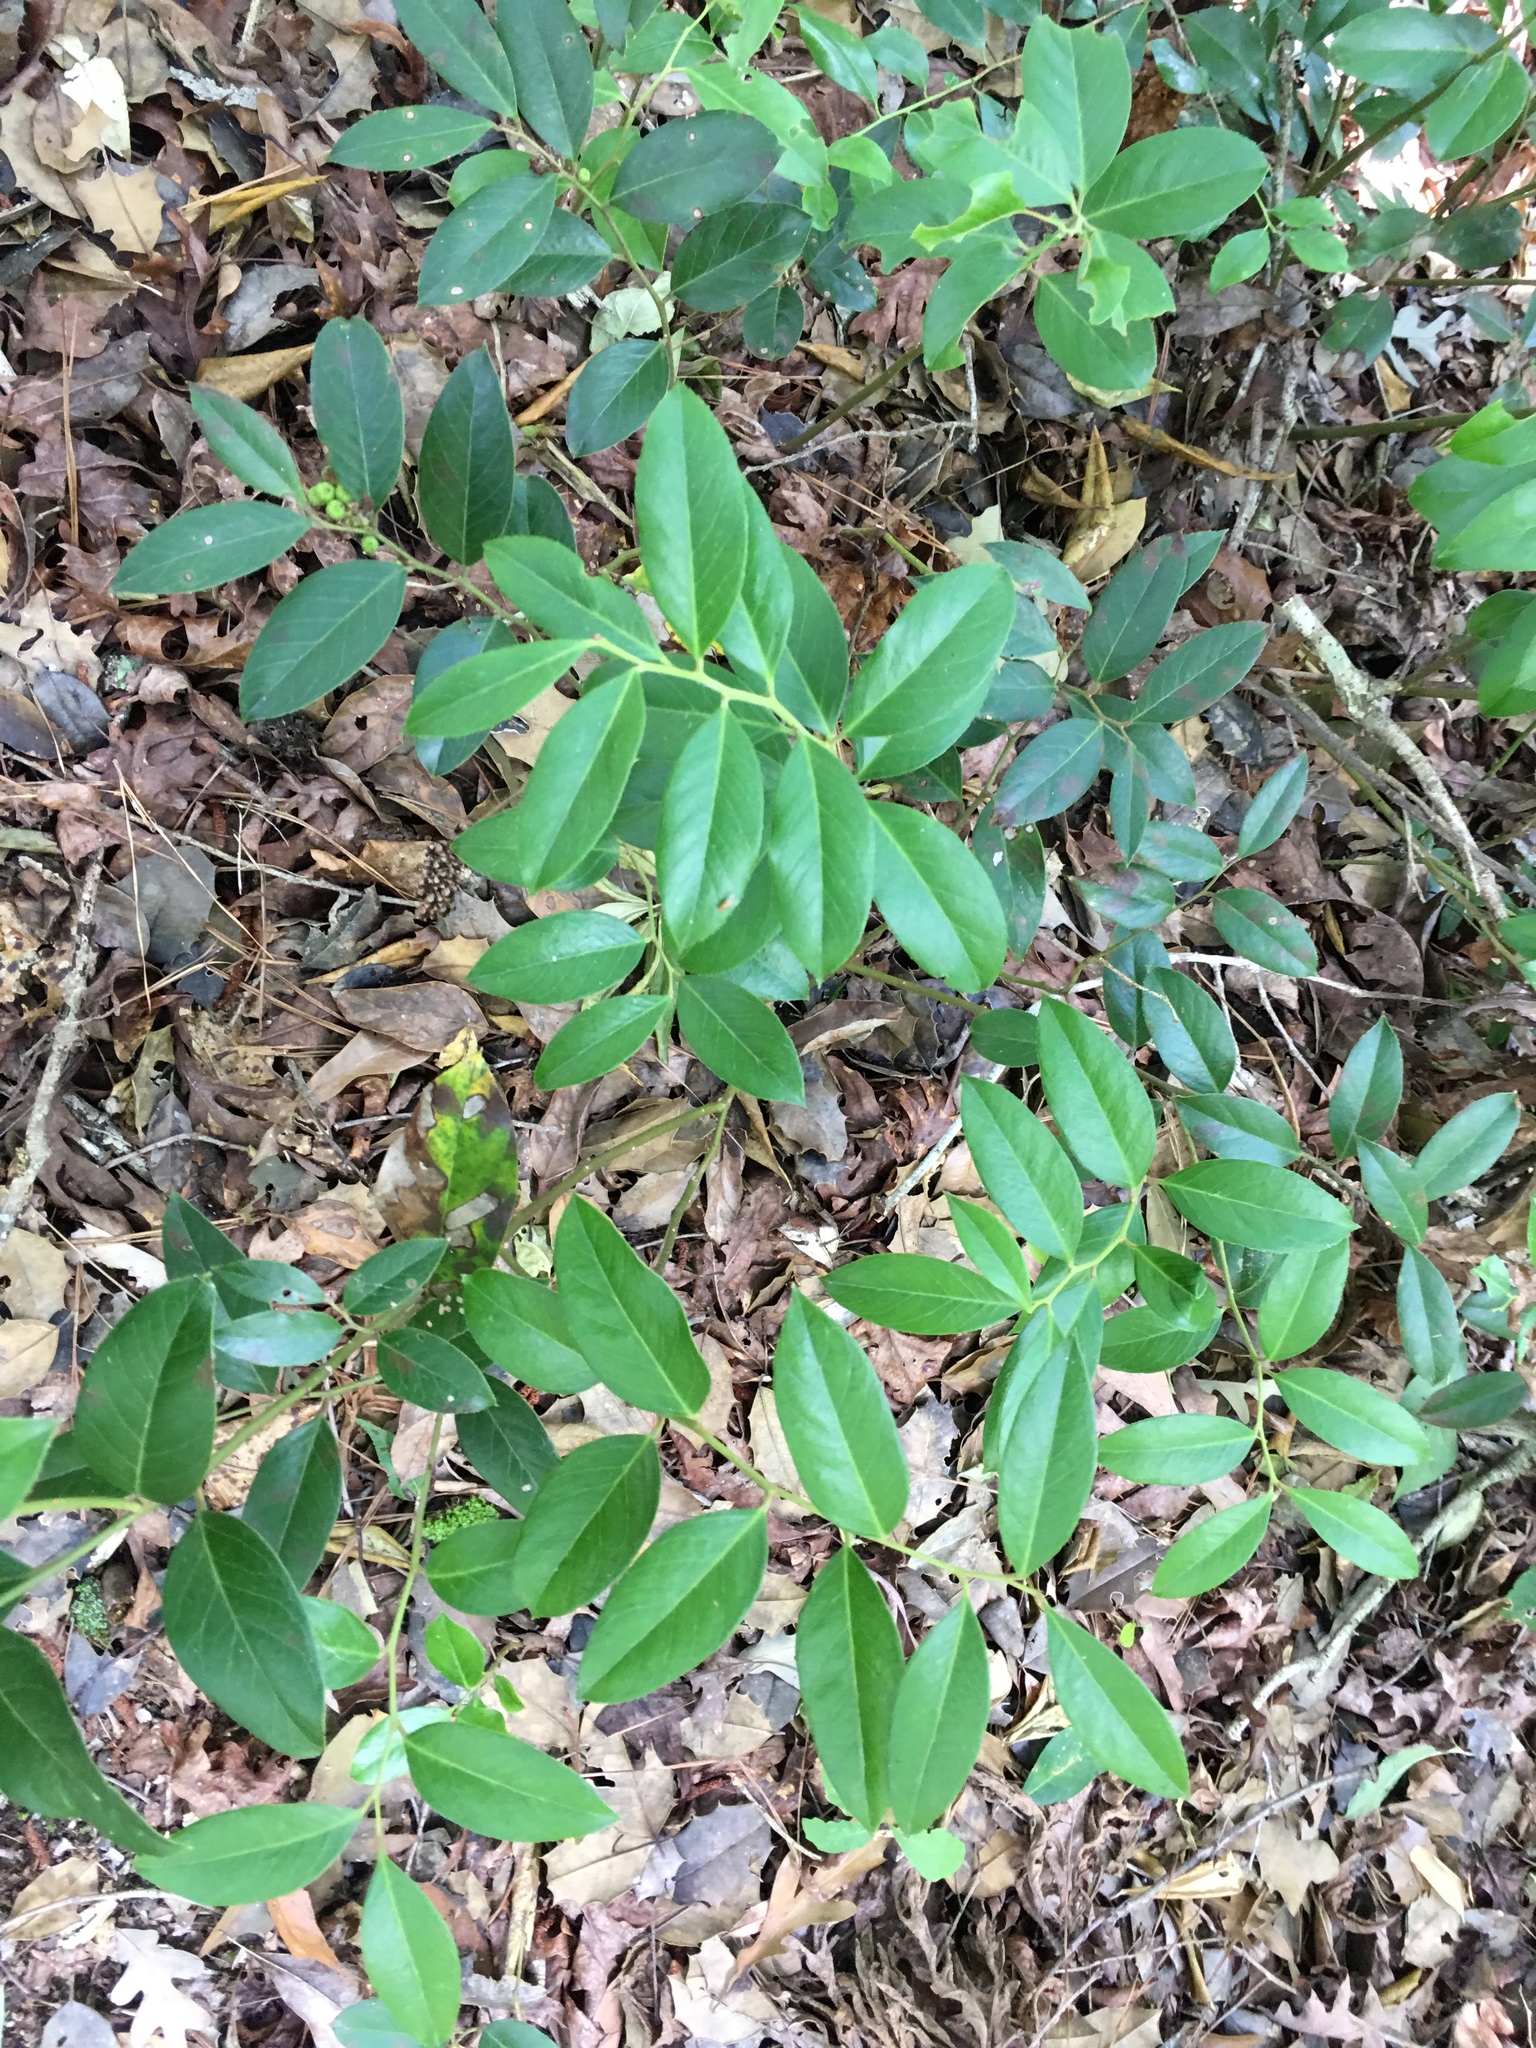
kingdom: Plantae
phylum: Tracheophyta
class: Magnoliopsida
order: Ericales
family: Ericaceae
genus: Leucothoe
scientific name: Leucothoe axillaris
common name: Leucothoe
